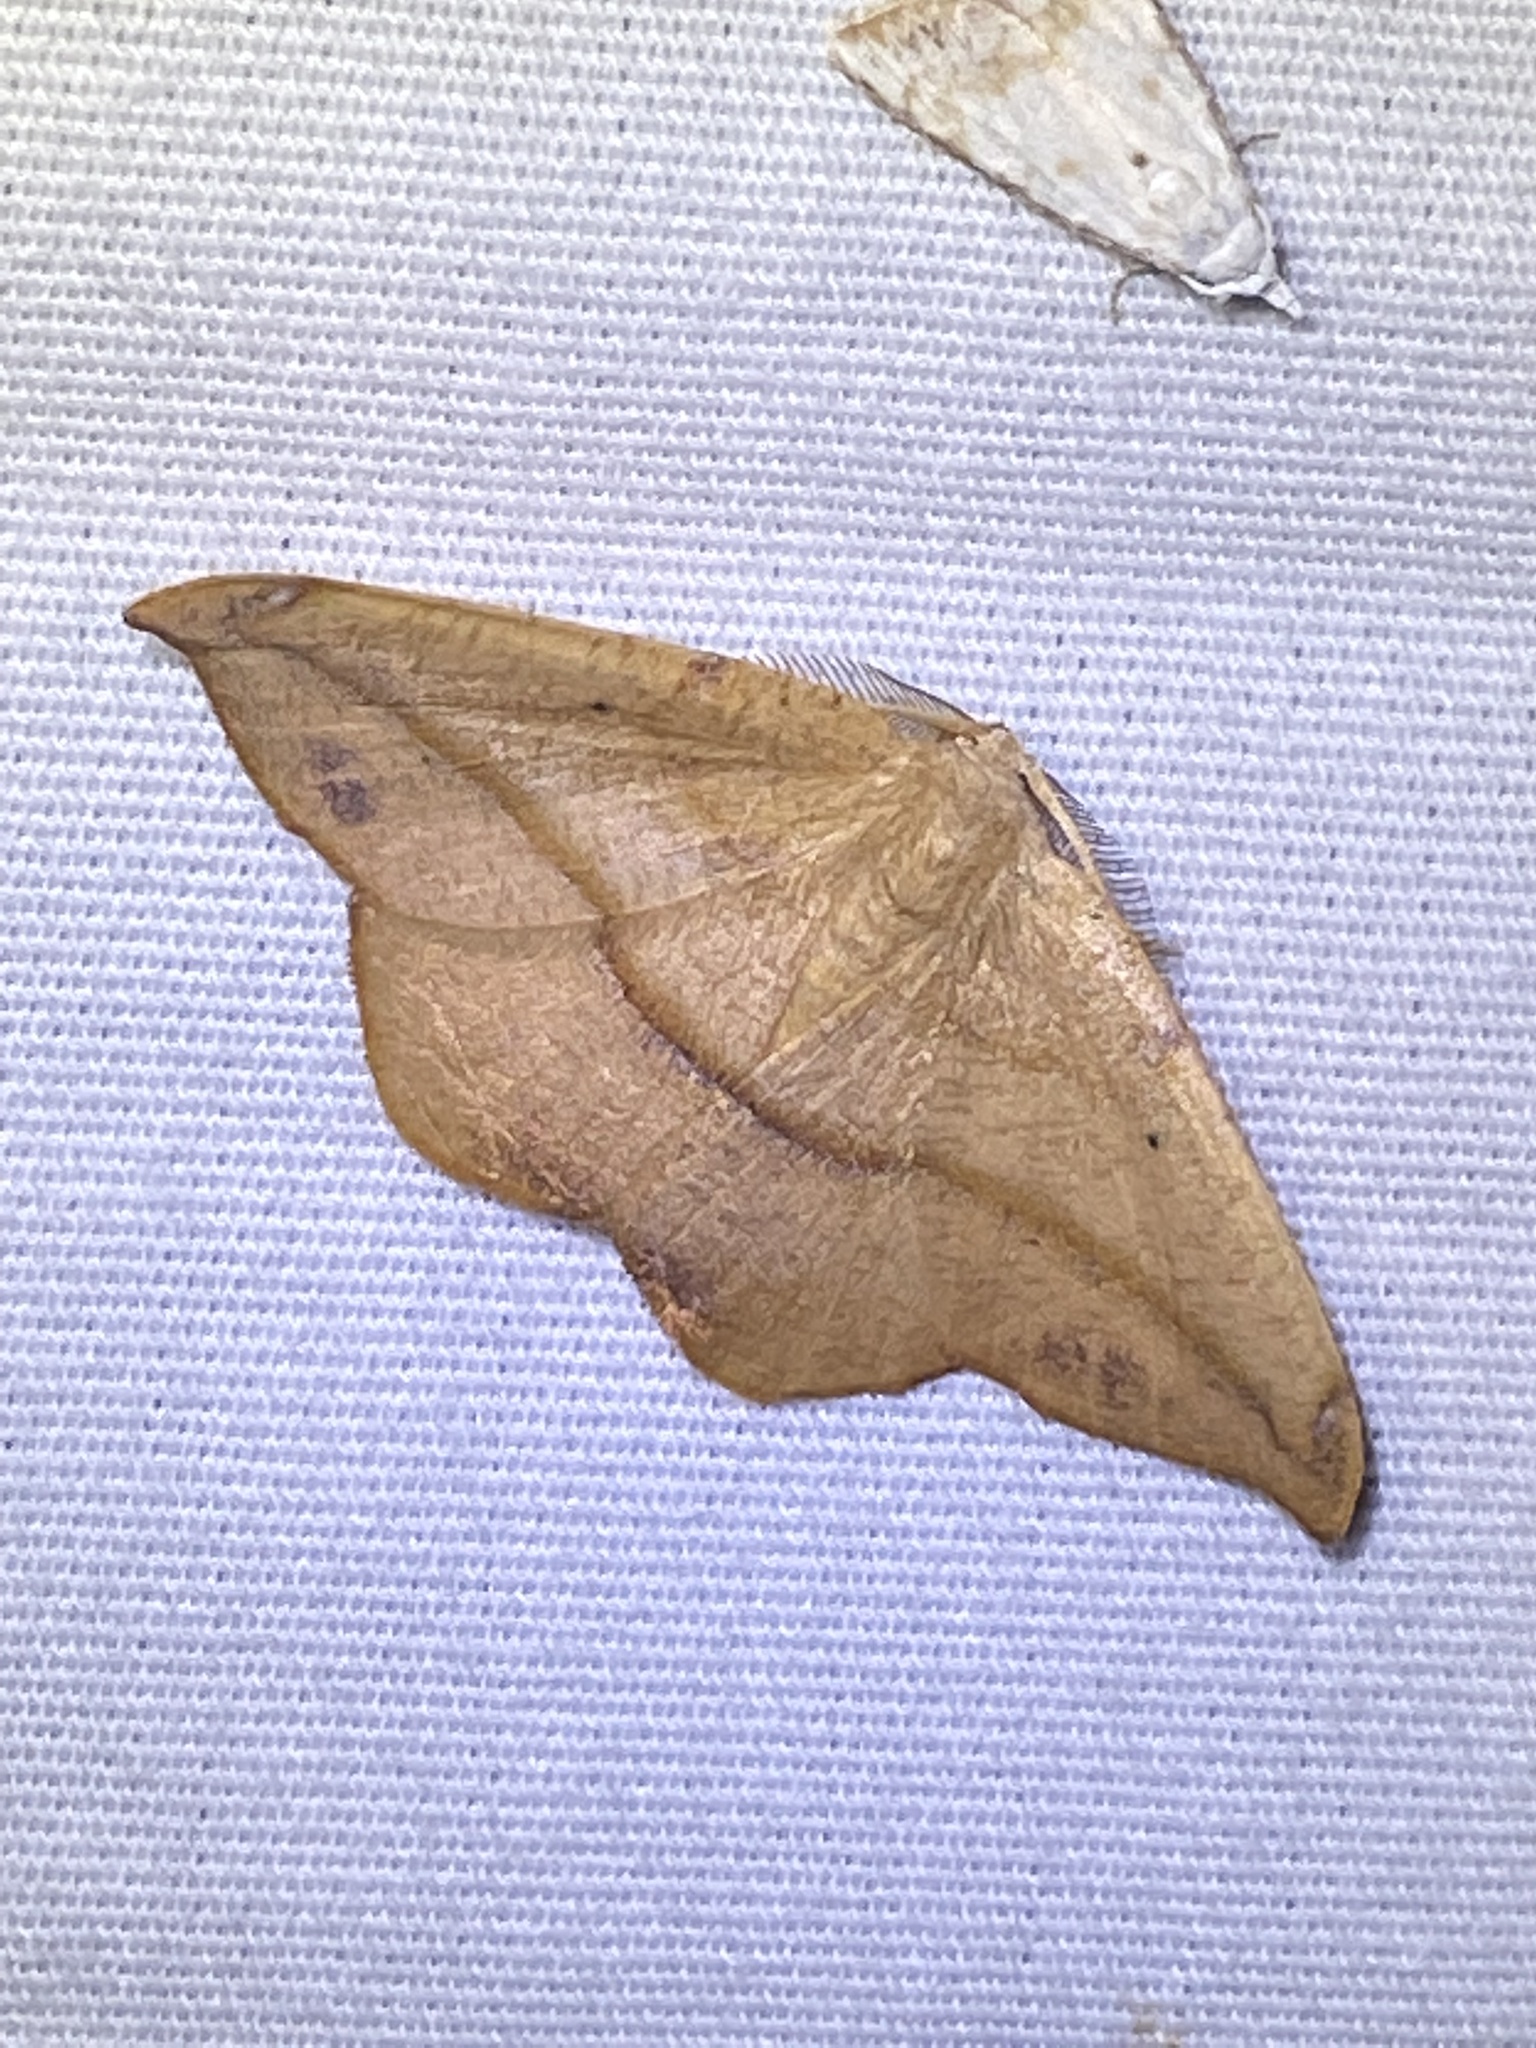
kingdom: Animalia
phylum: Arthropoda
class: Insecta
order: Lepidoptera
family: Geometridae
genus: Patalene
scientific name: Patalene olyzonaria
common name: Juniper geometer moth
